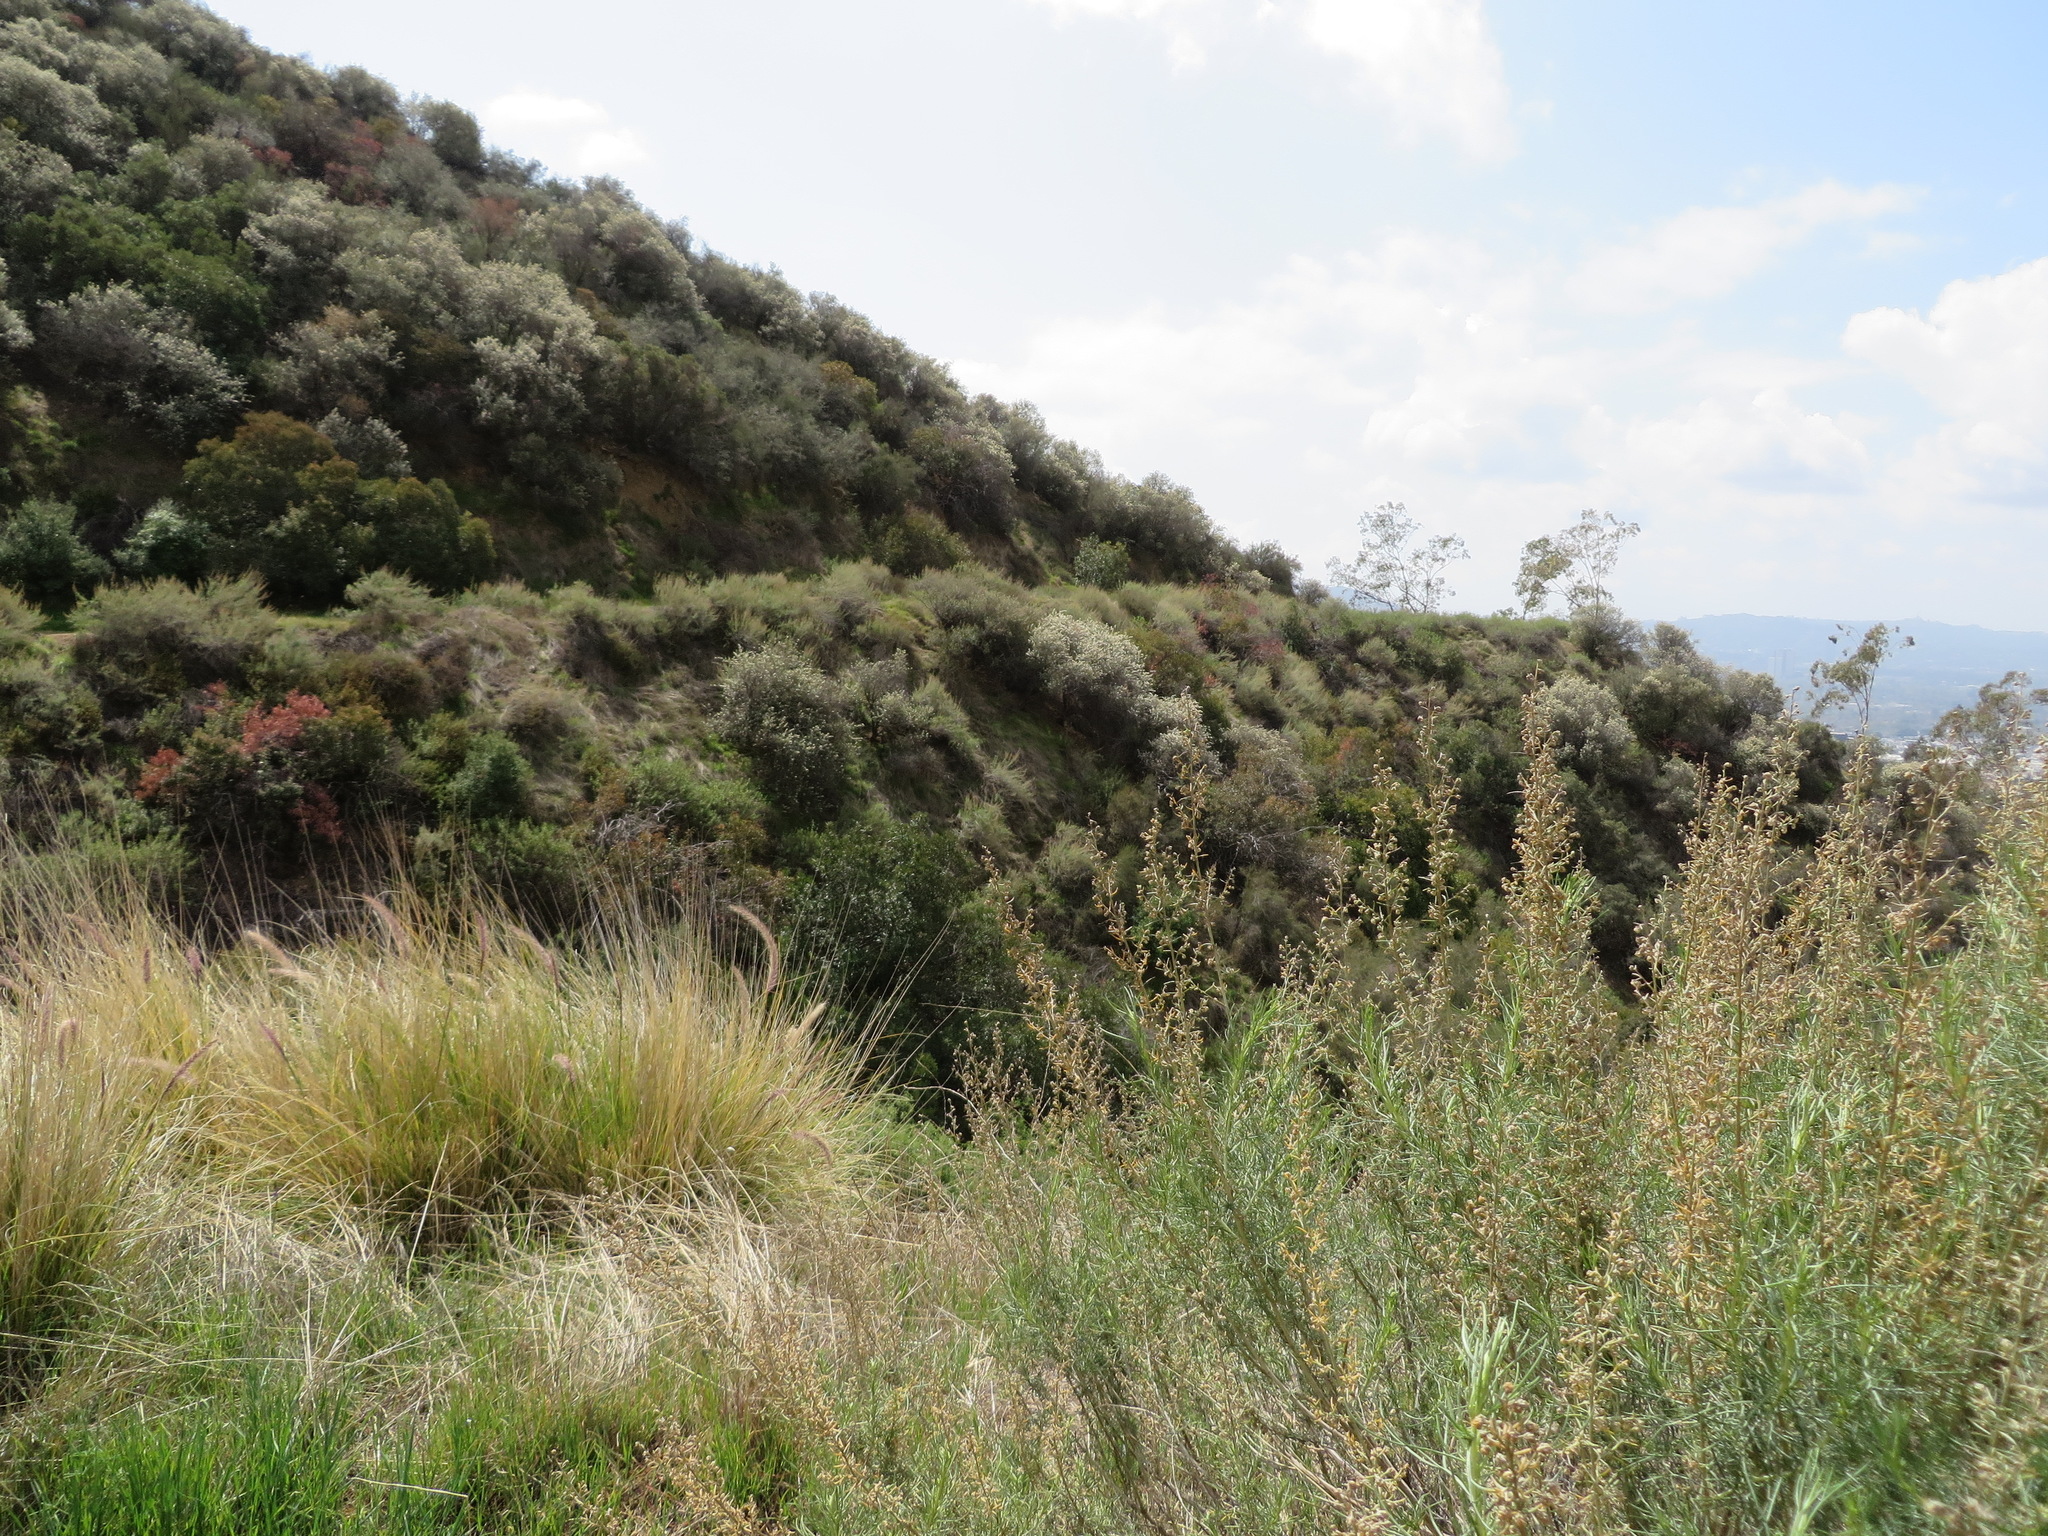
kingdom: Plantae
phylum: Tracheophyta
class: Magnoliopsida
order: Asterales
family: Asteraceae
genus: Artemisia
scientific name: Artemisia californica
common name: California sagebrush
